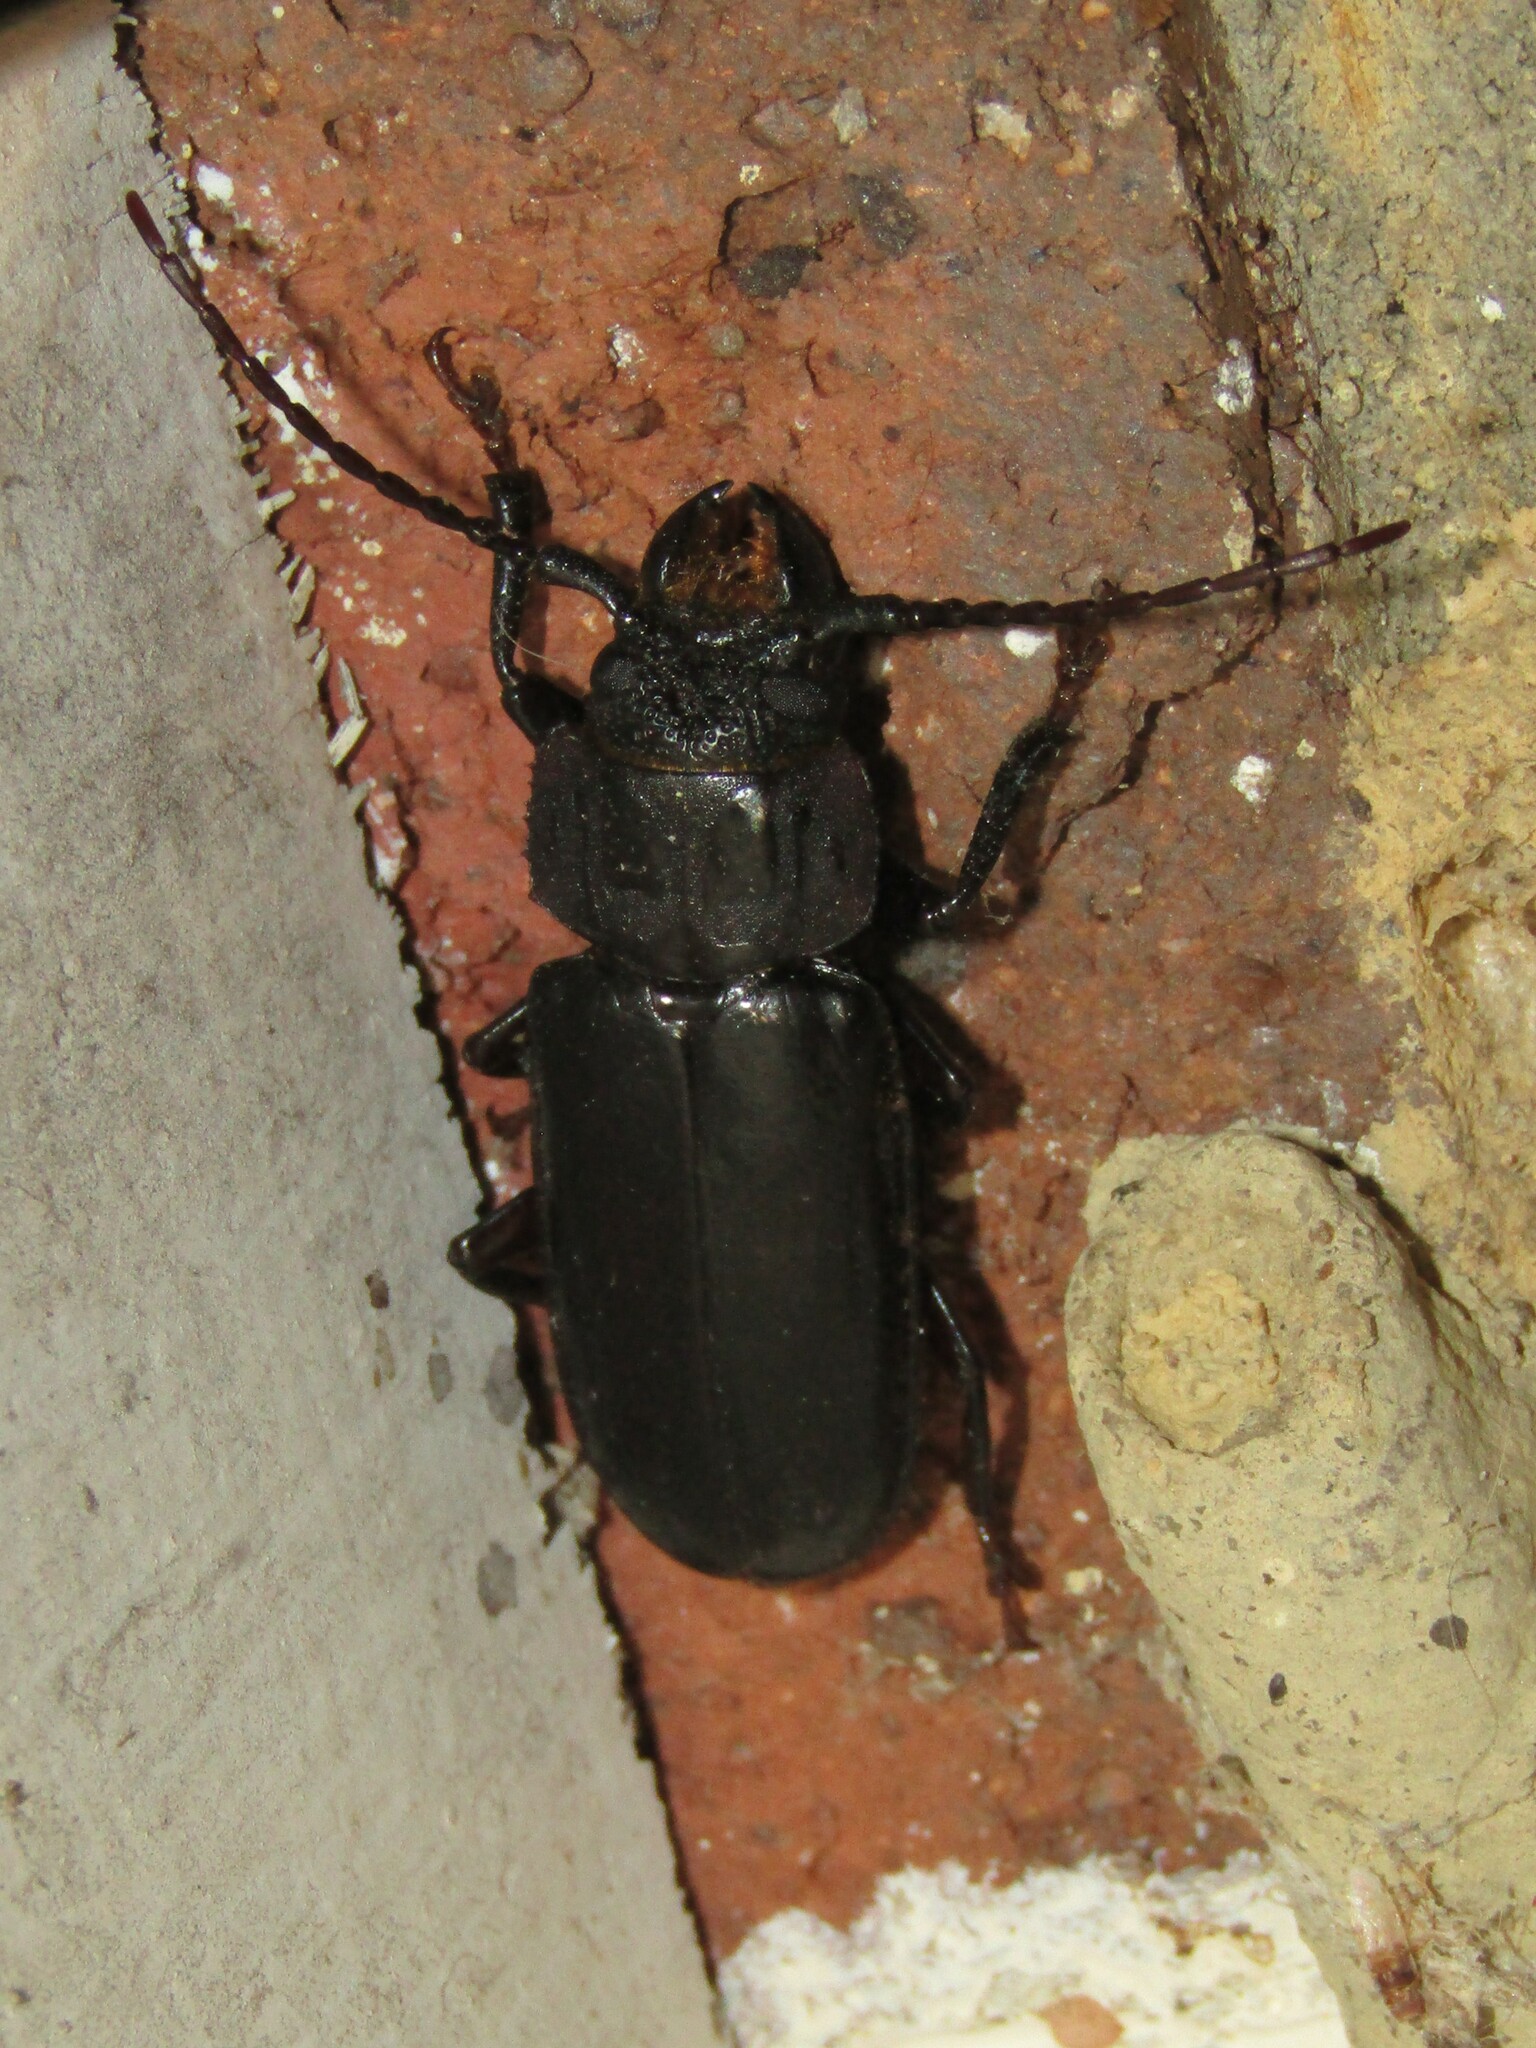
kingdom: Animalia
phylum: Arthropoda
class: Insecta
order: Coleoptera
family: Cerambycidae
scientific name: Cerambycidae
